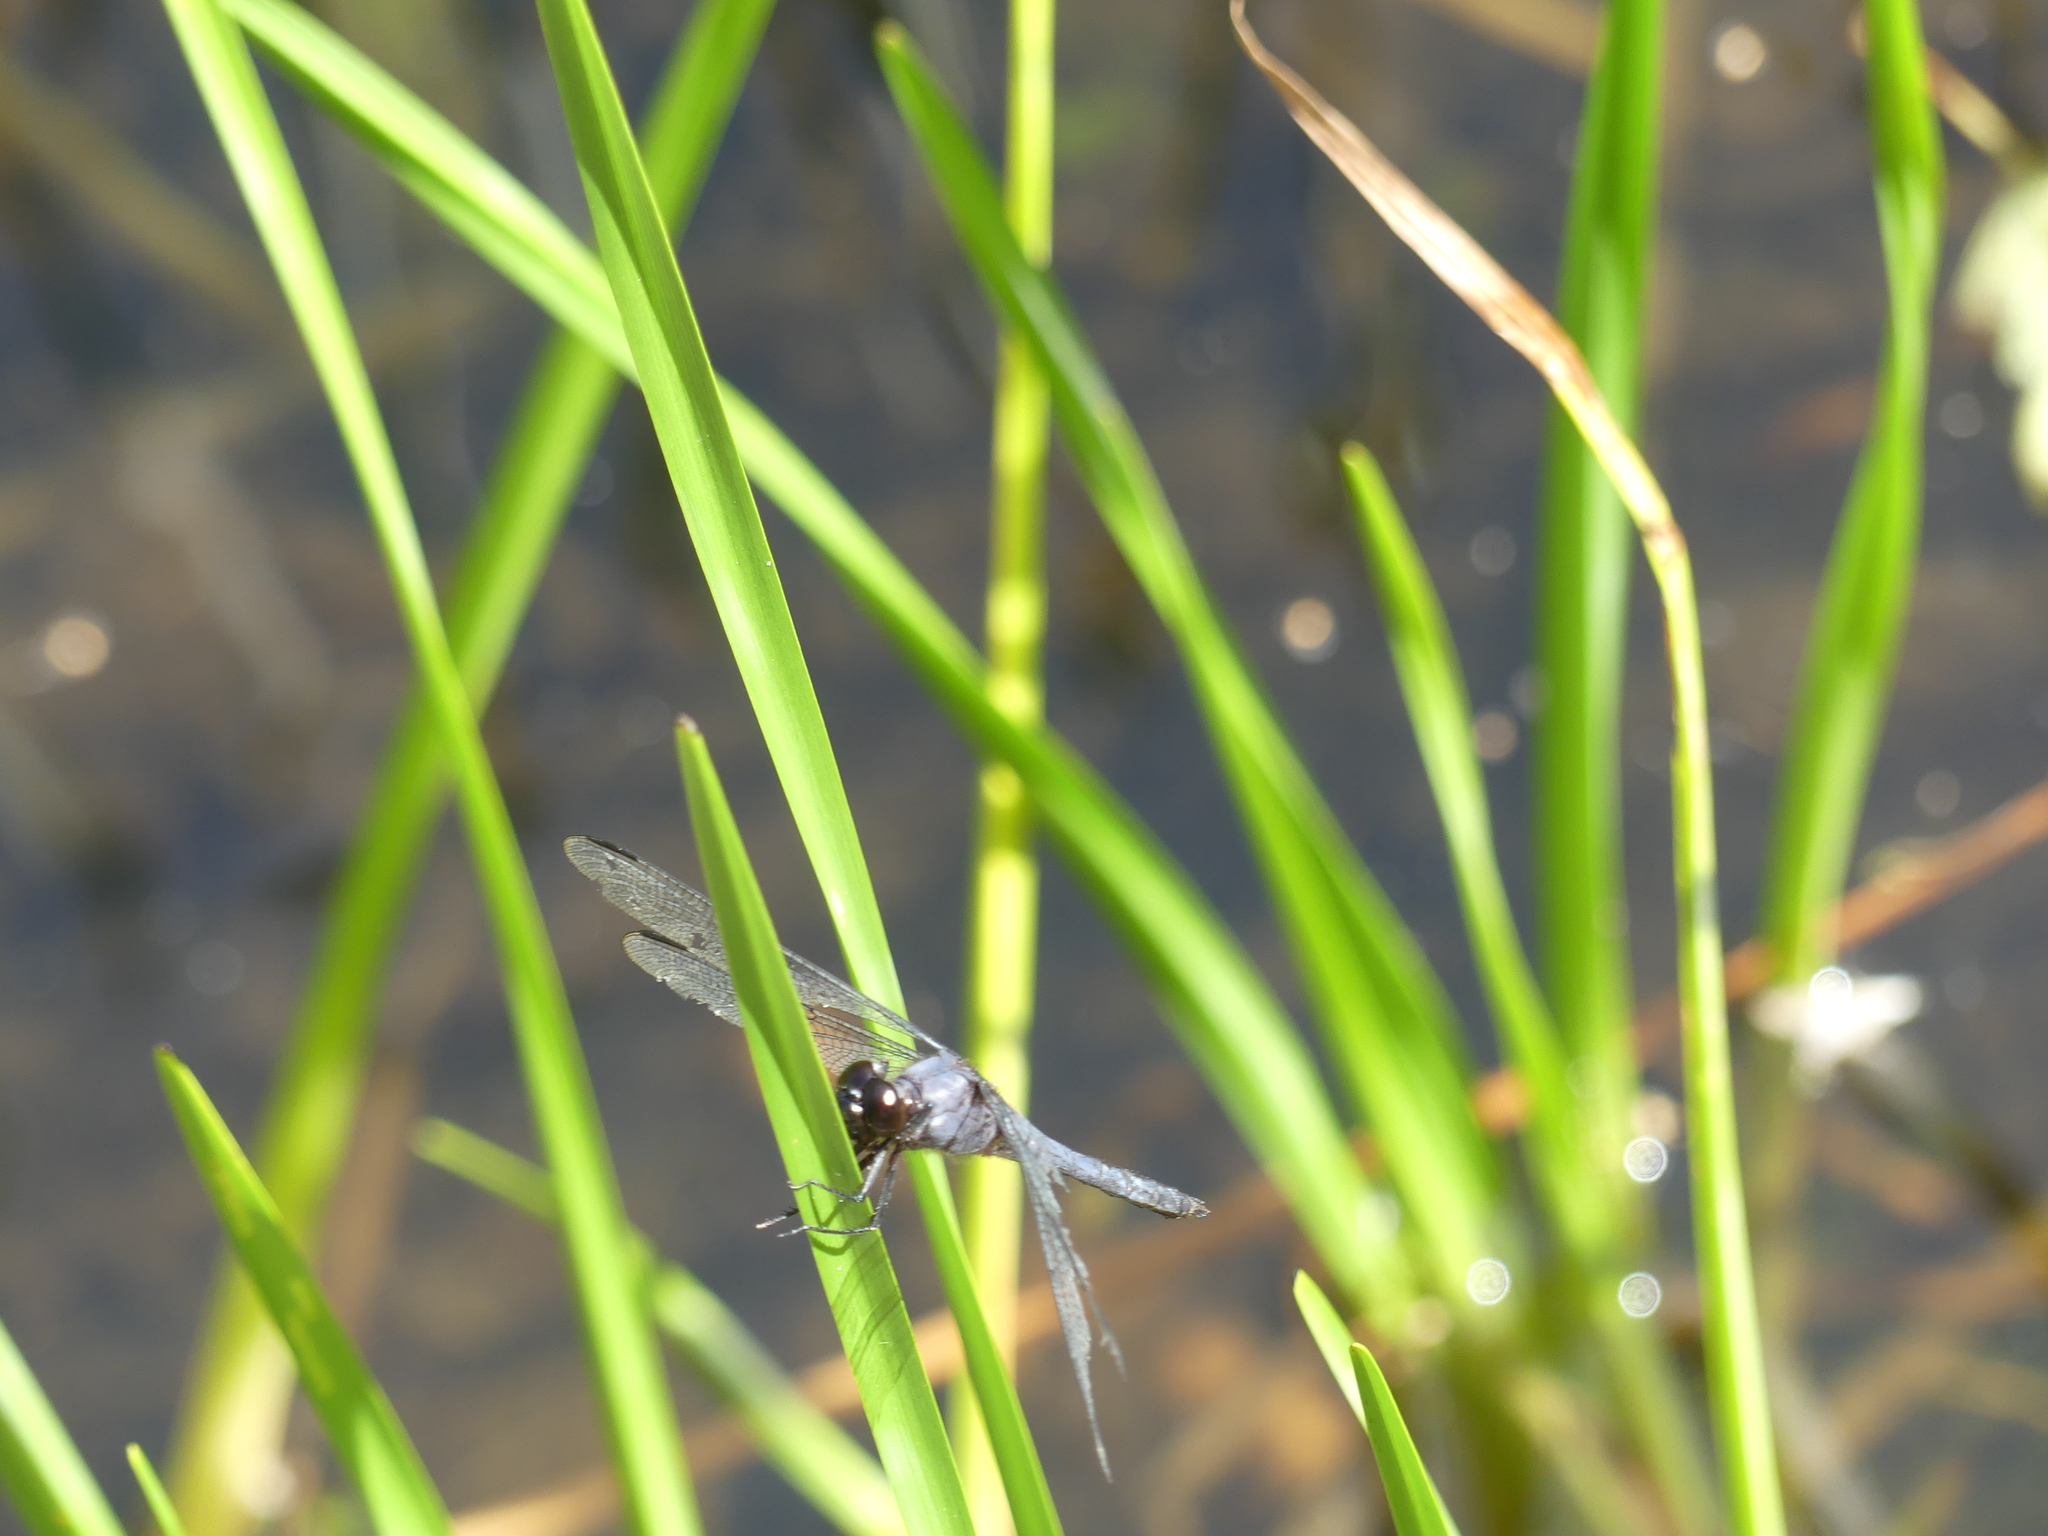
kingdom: Animalia
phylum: Arthropoda
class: Insecta
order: Odonata
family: Libellulidae
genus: Libellula
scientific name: Libellula incesta
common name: Slaty skimmer
